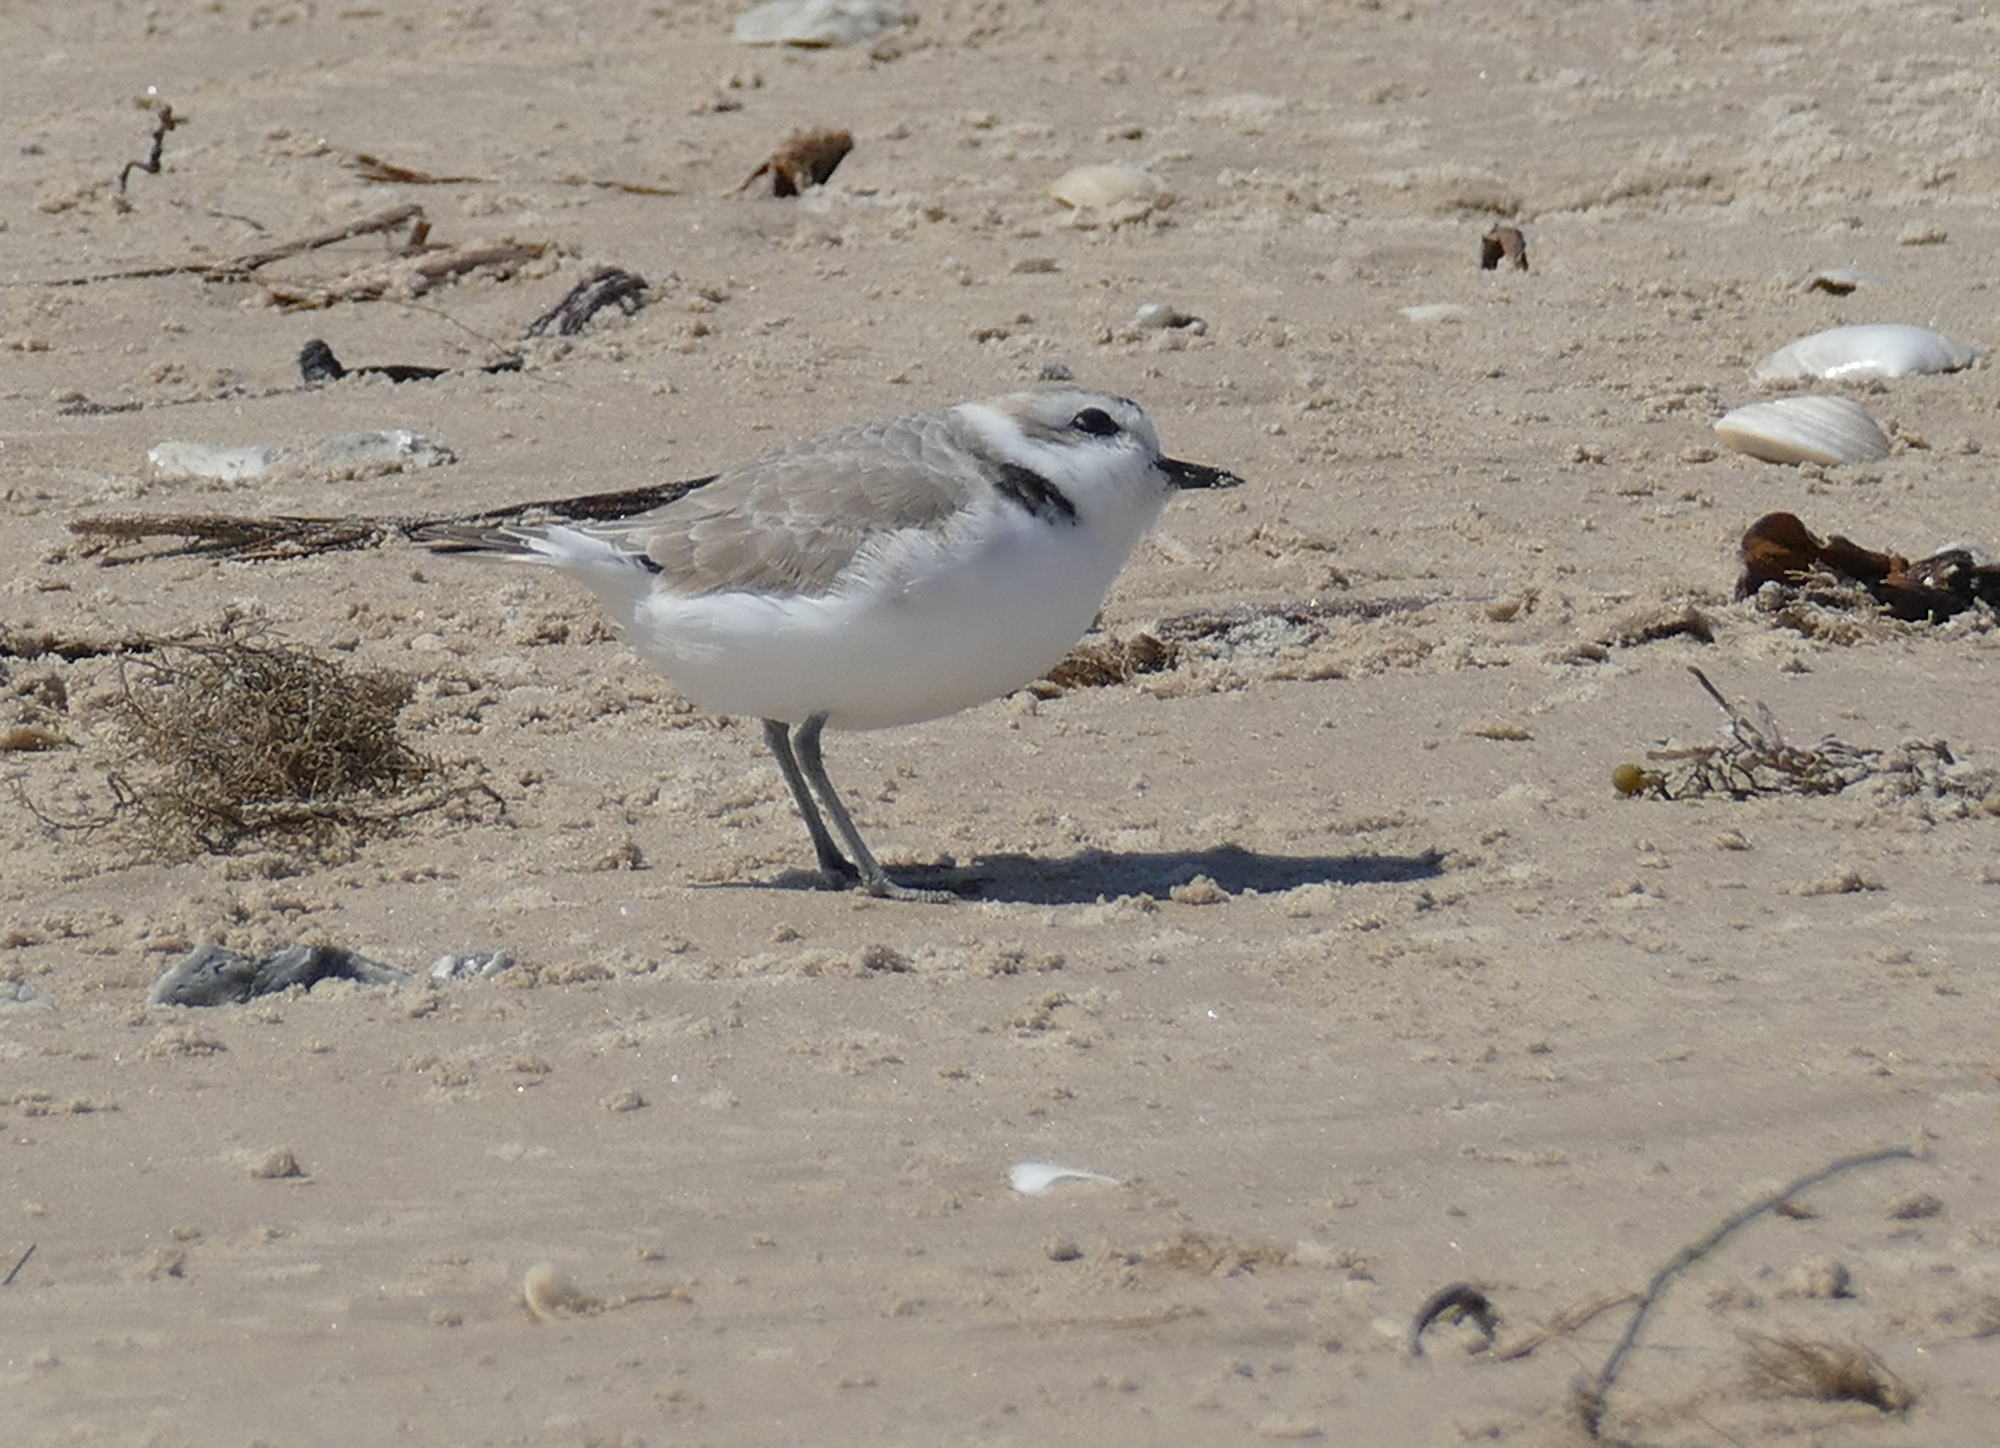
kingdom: Animalia
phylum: Chordata
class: Aves
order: Charadriiformes
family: Charadriidae
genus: Anarhynchus
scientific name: Anarhynchus
